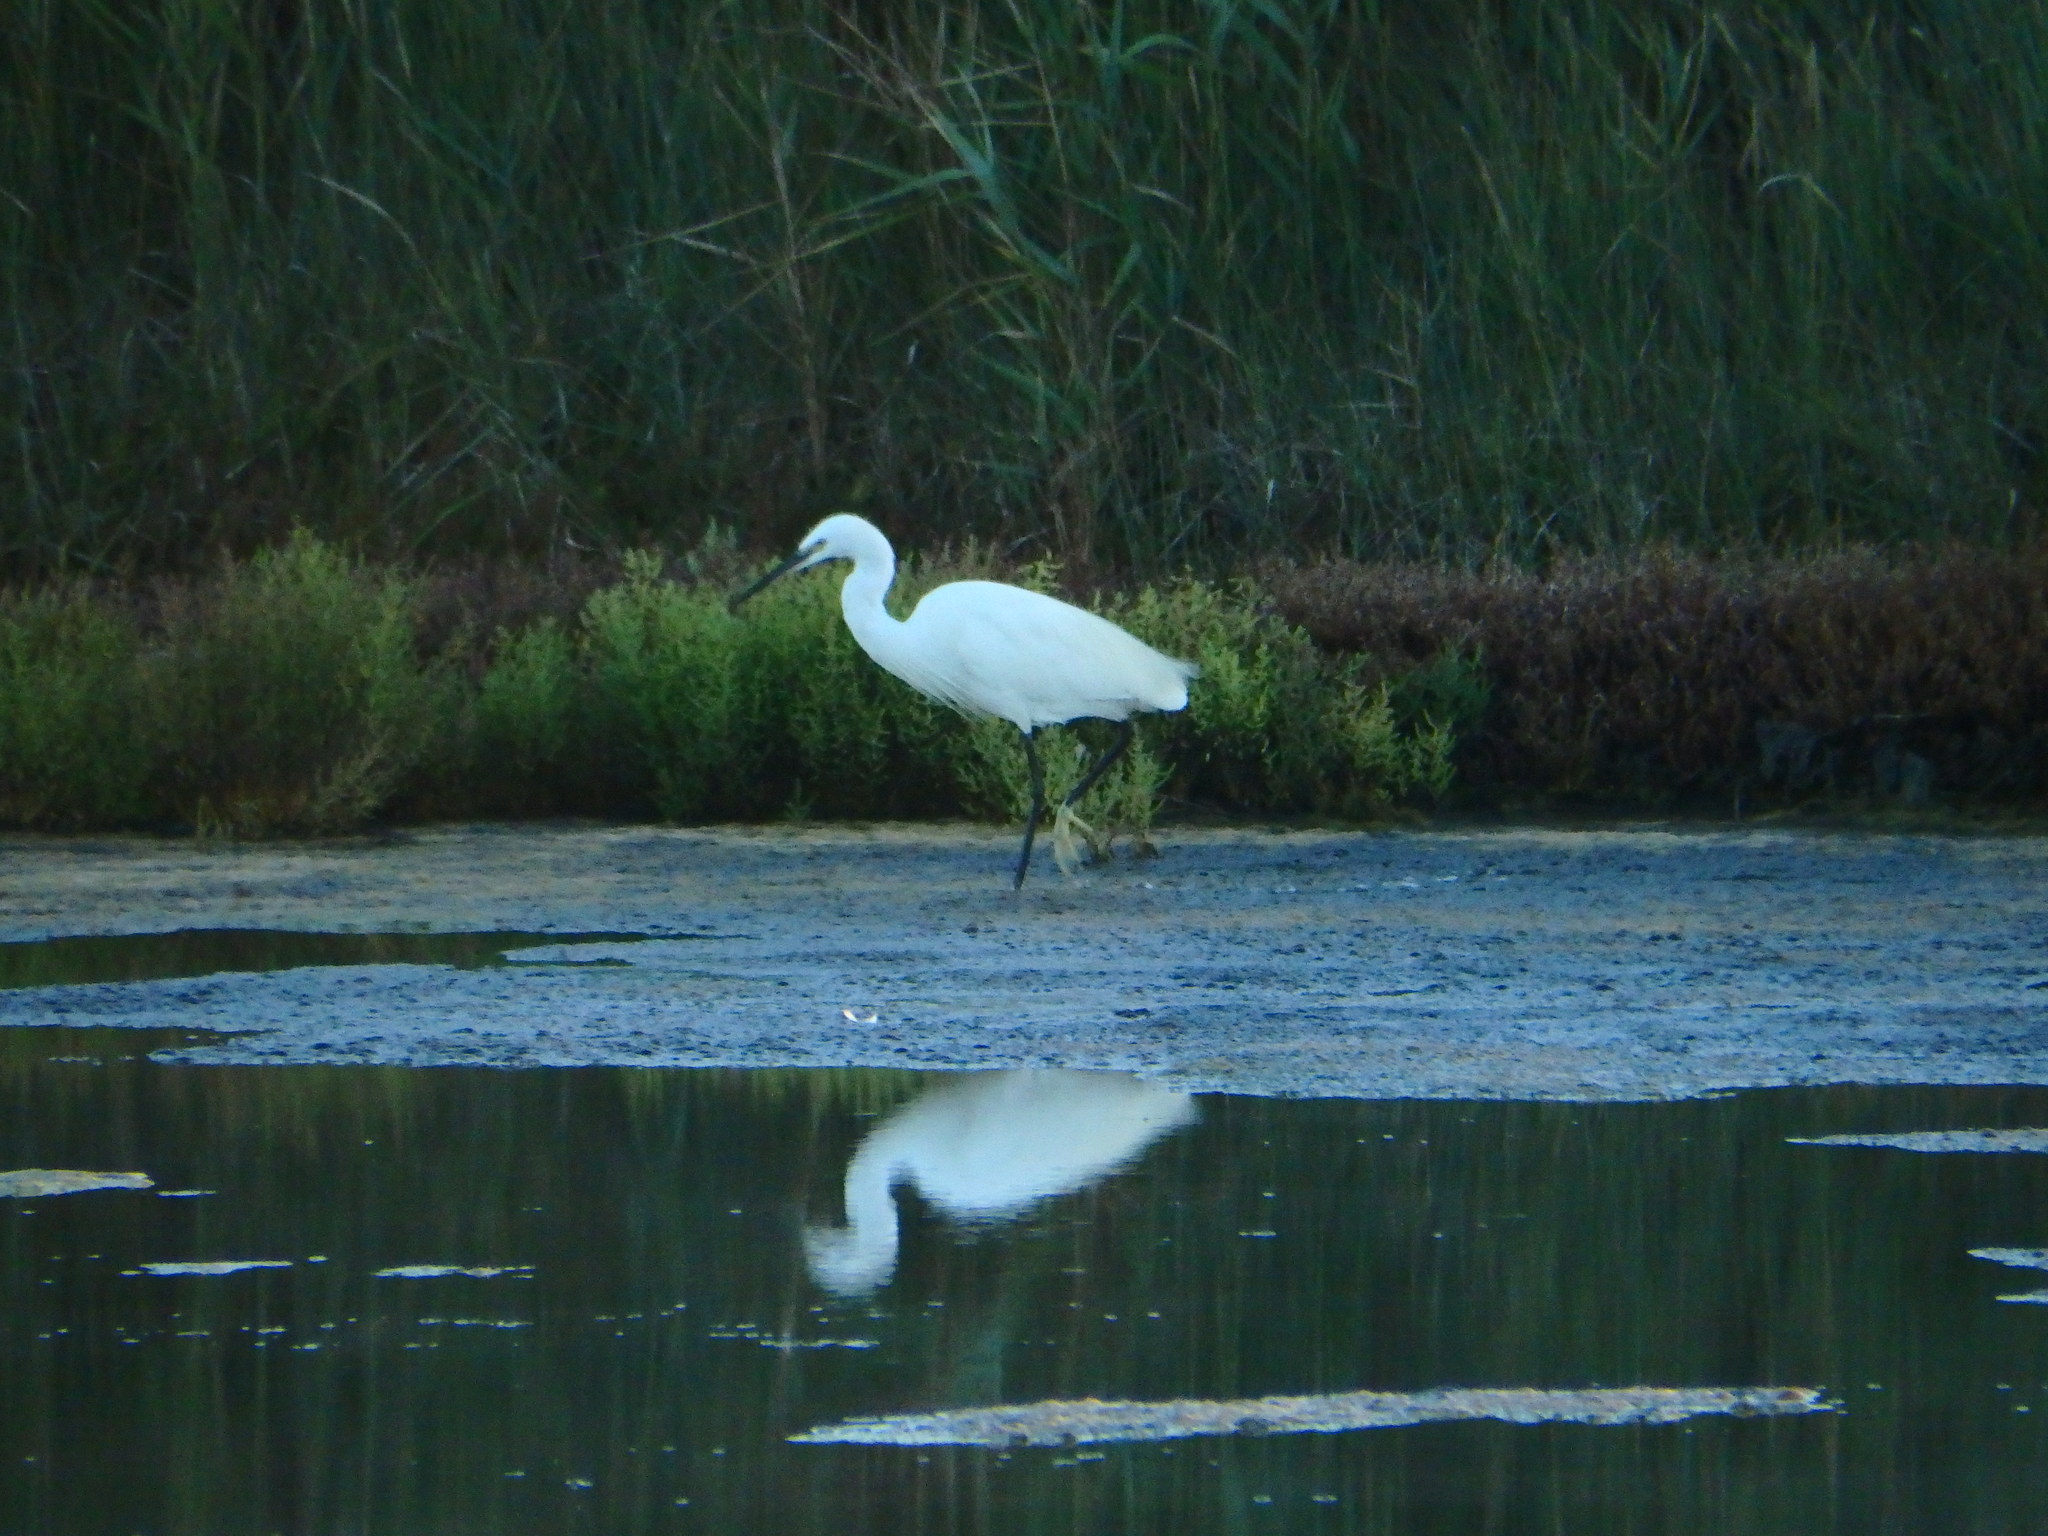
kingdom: Animalia
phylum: Chordata
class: Aves
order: Pelecaniformes
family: Ardeidae
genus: Egretta
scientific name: Egretta garzetta
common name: Little egret
